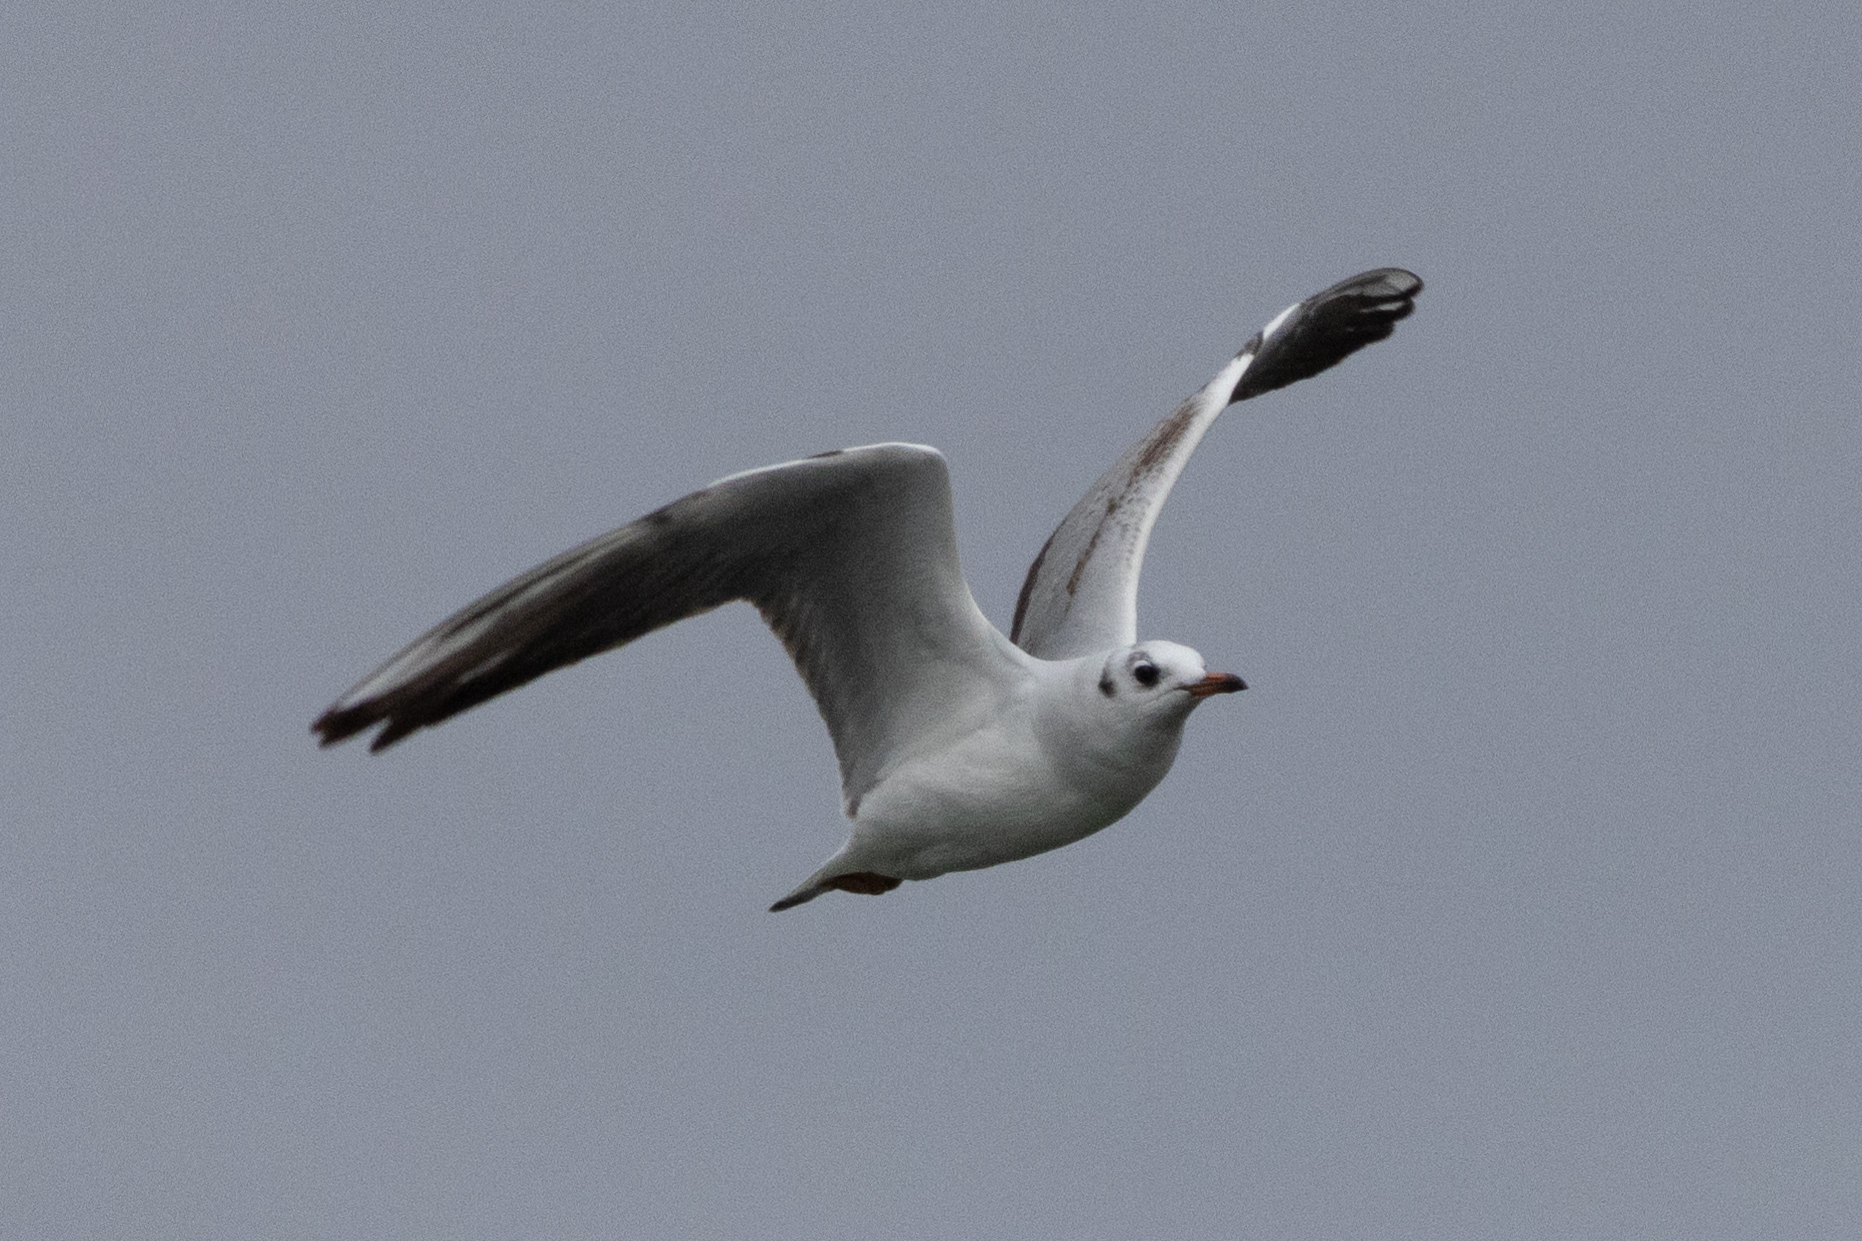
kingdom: Animalia
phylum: Chordata
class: Aves
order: Charadriiformes
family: Laridae
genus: Chroicocephalus
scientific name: Chroicocephalus ridibundus
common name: Black-headed gull
